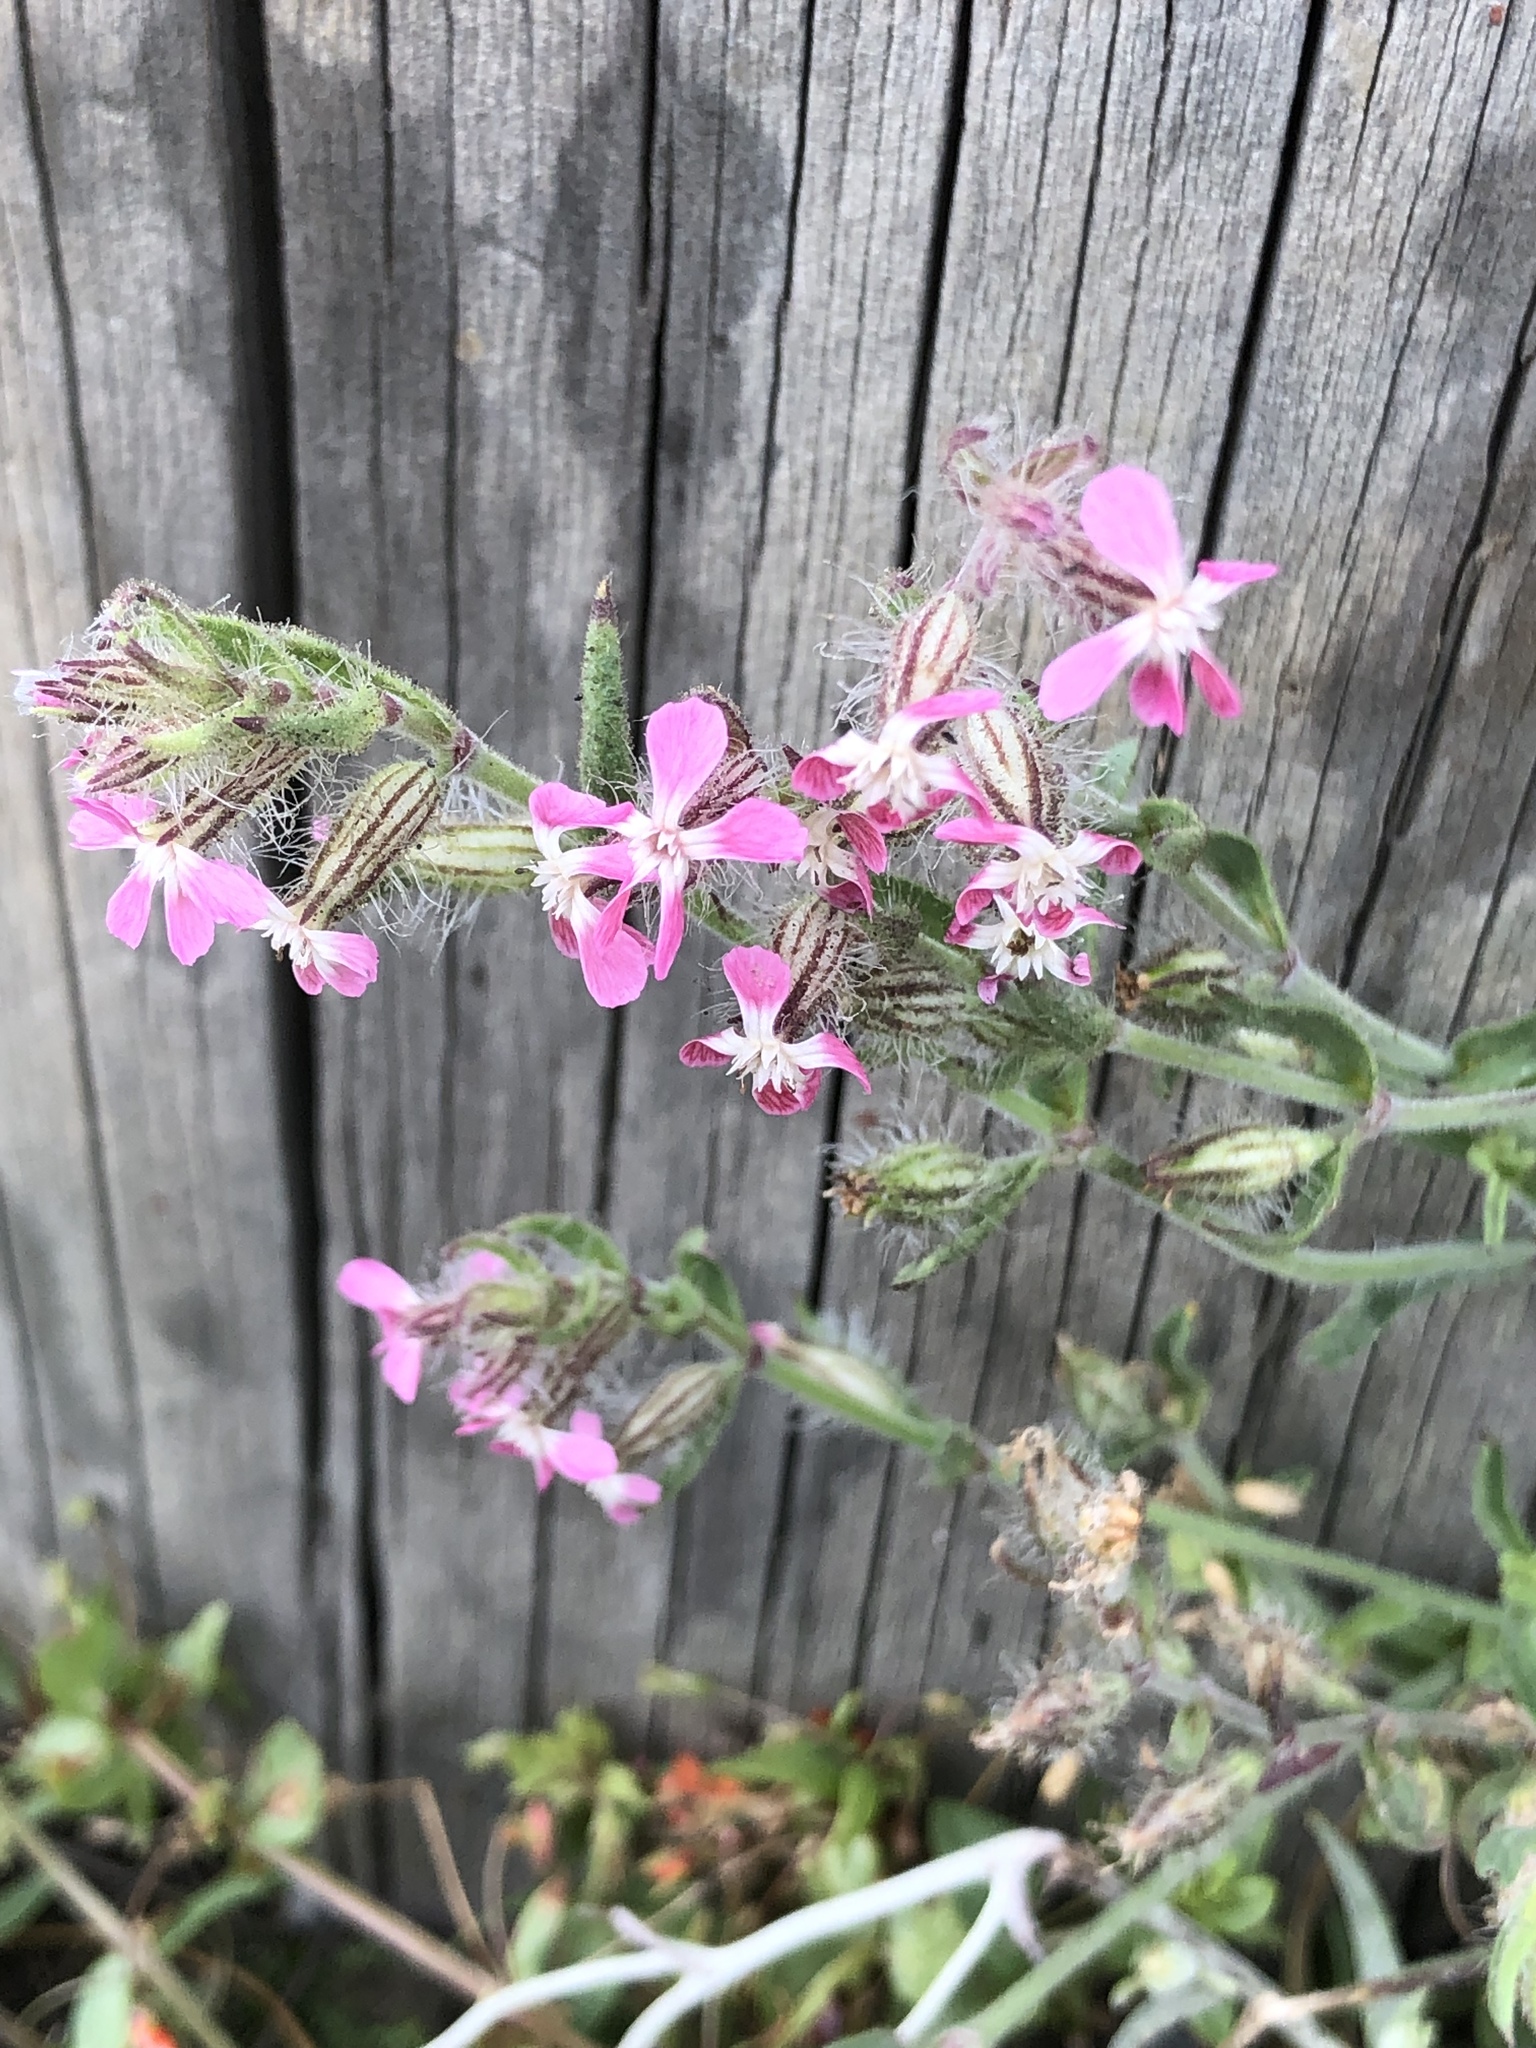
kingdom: Plantae
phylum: Tracheophyta
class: Magnoliopsida
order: Caryophyllales
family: Caryophyllaceae
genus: Silene
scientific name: Silene gallica
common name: Small-flowered catchfly
